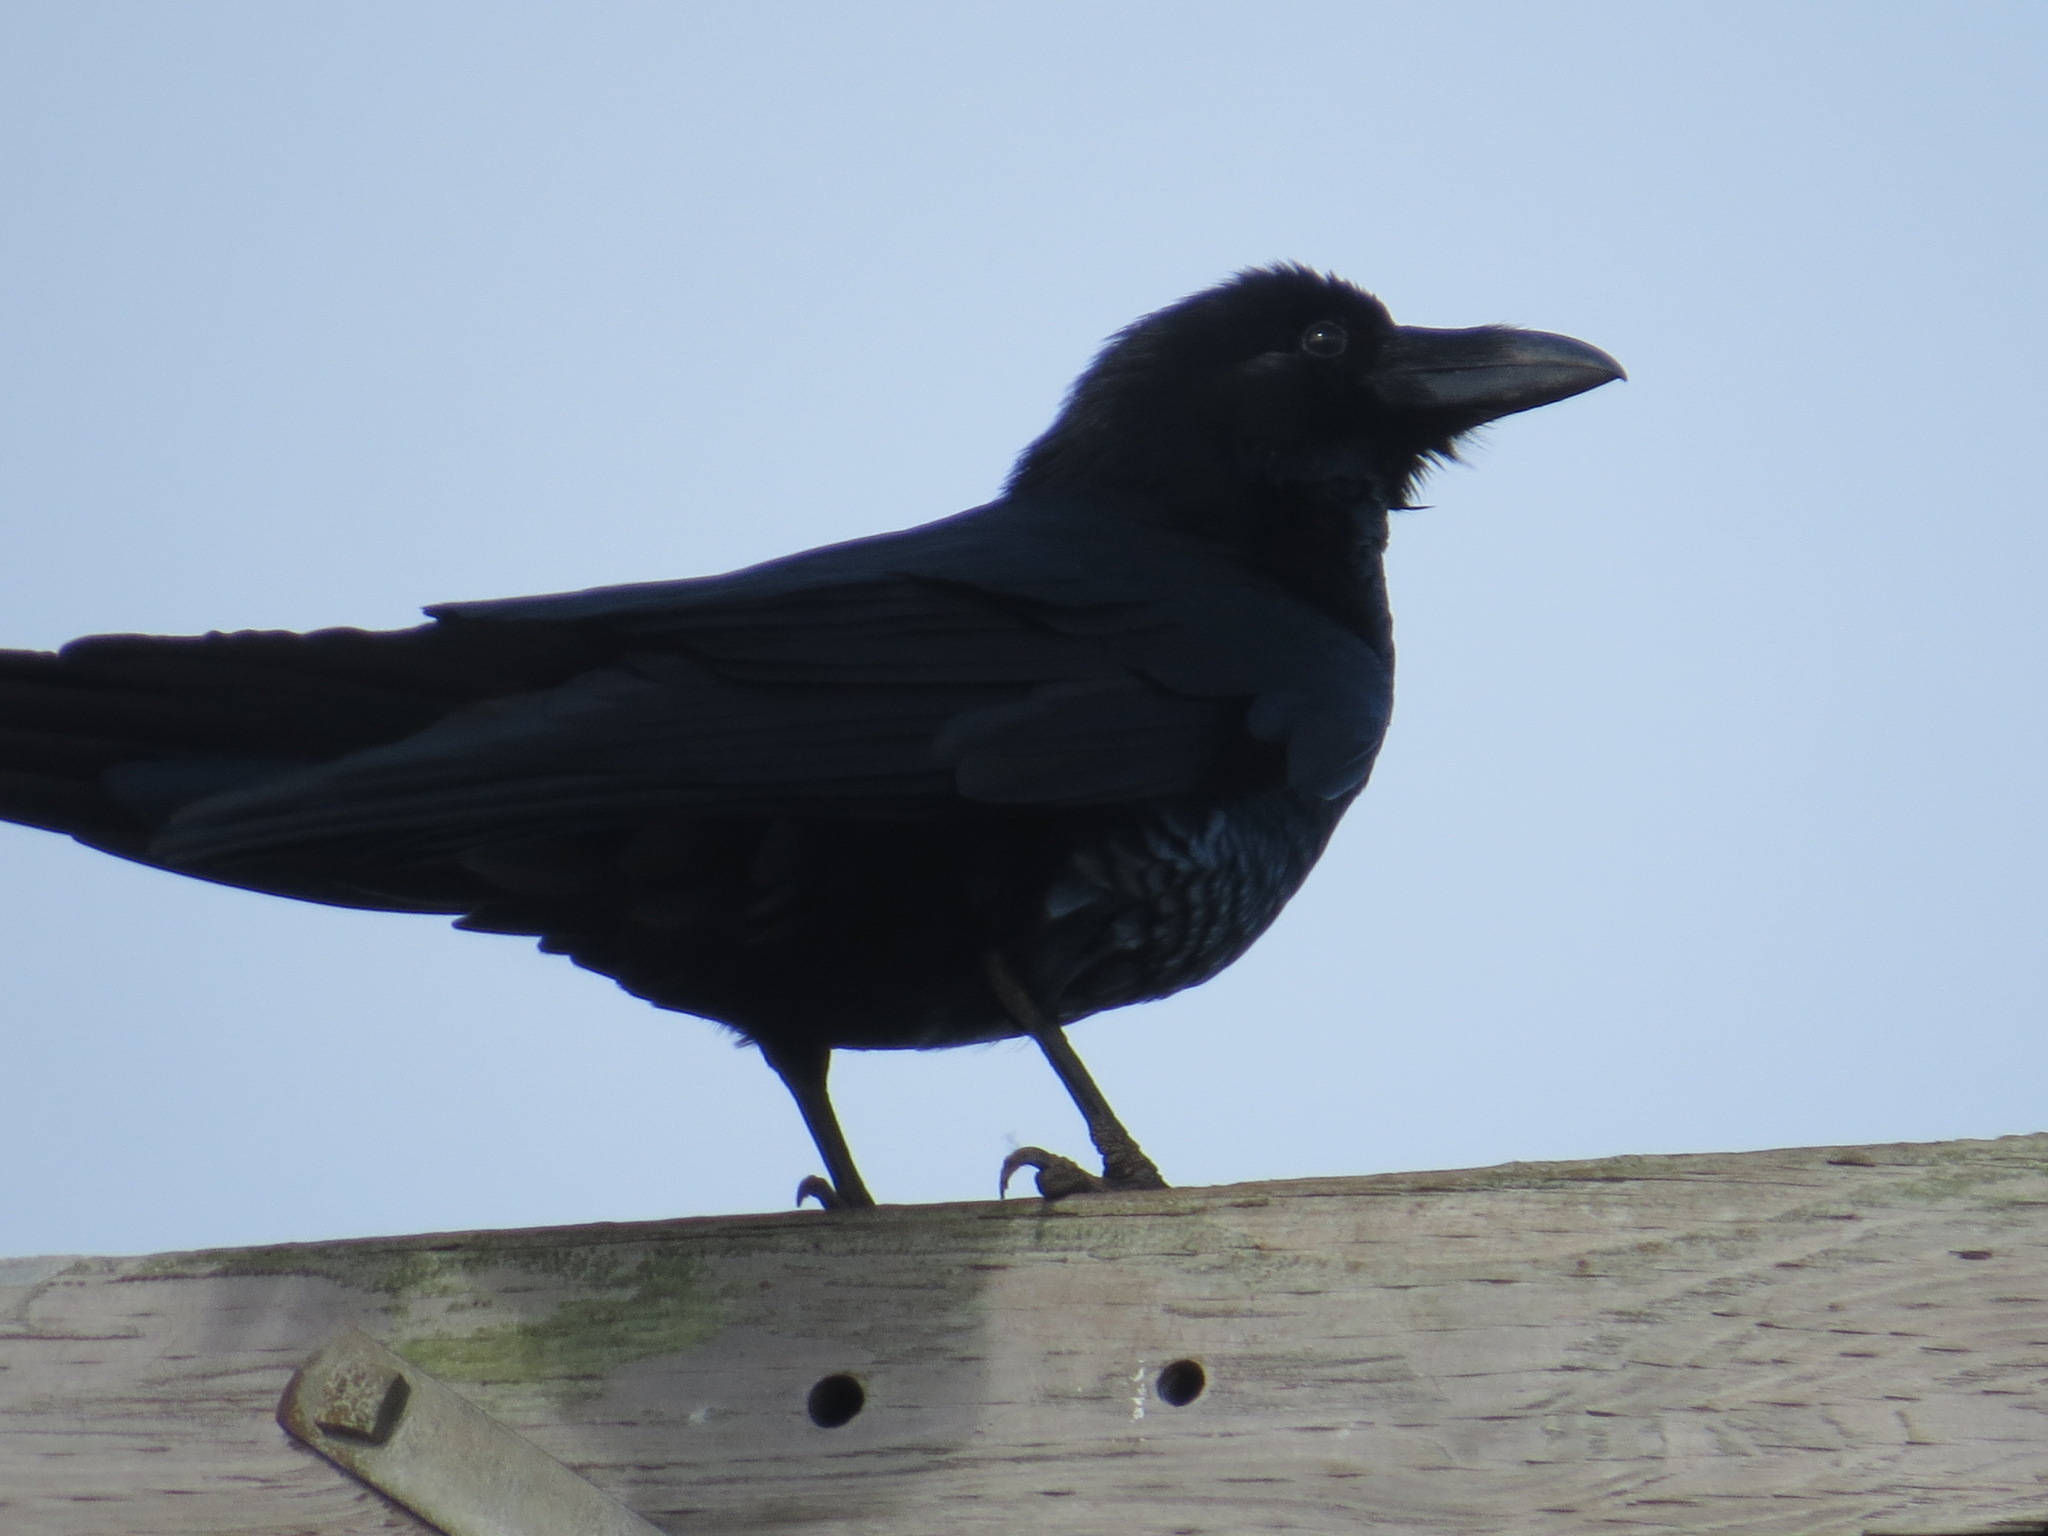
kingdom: Animalia
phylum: Chordata
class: Aves
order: Passeriformes
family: Corvidae
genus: Corvus
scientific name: Corvus corax
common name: Common raven
